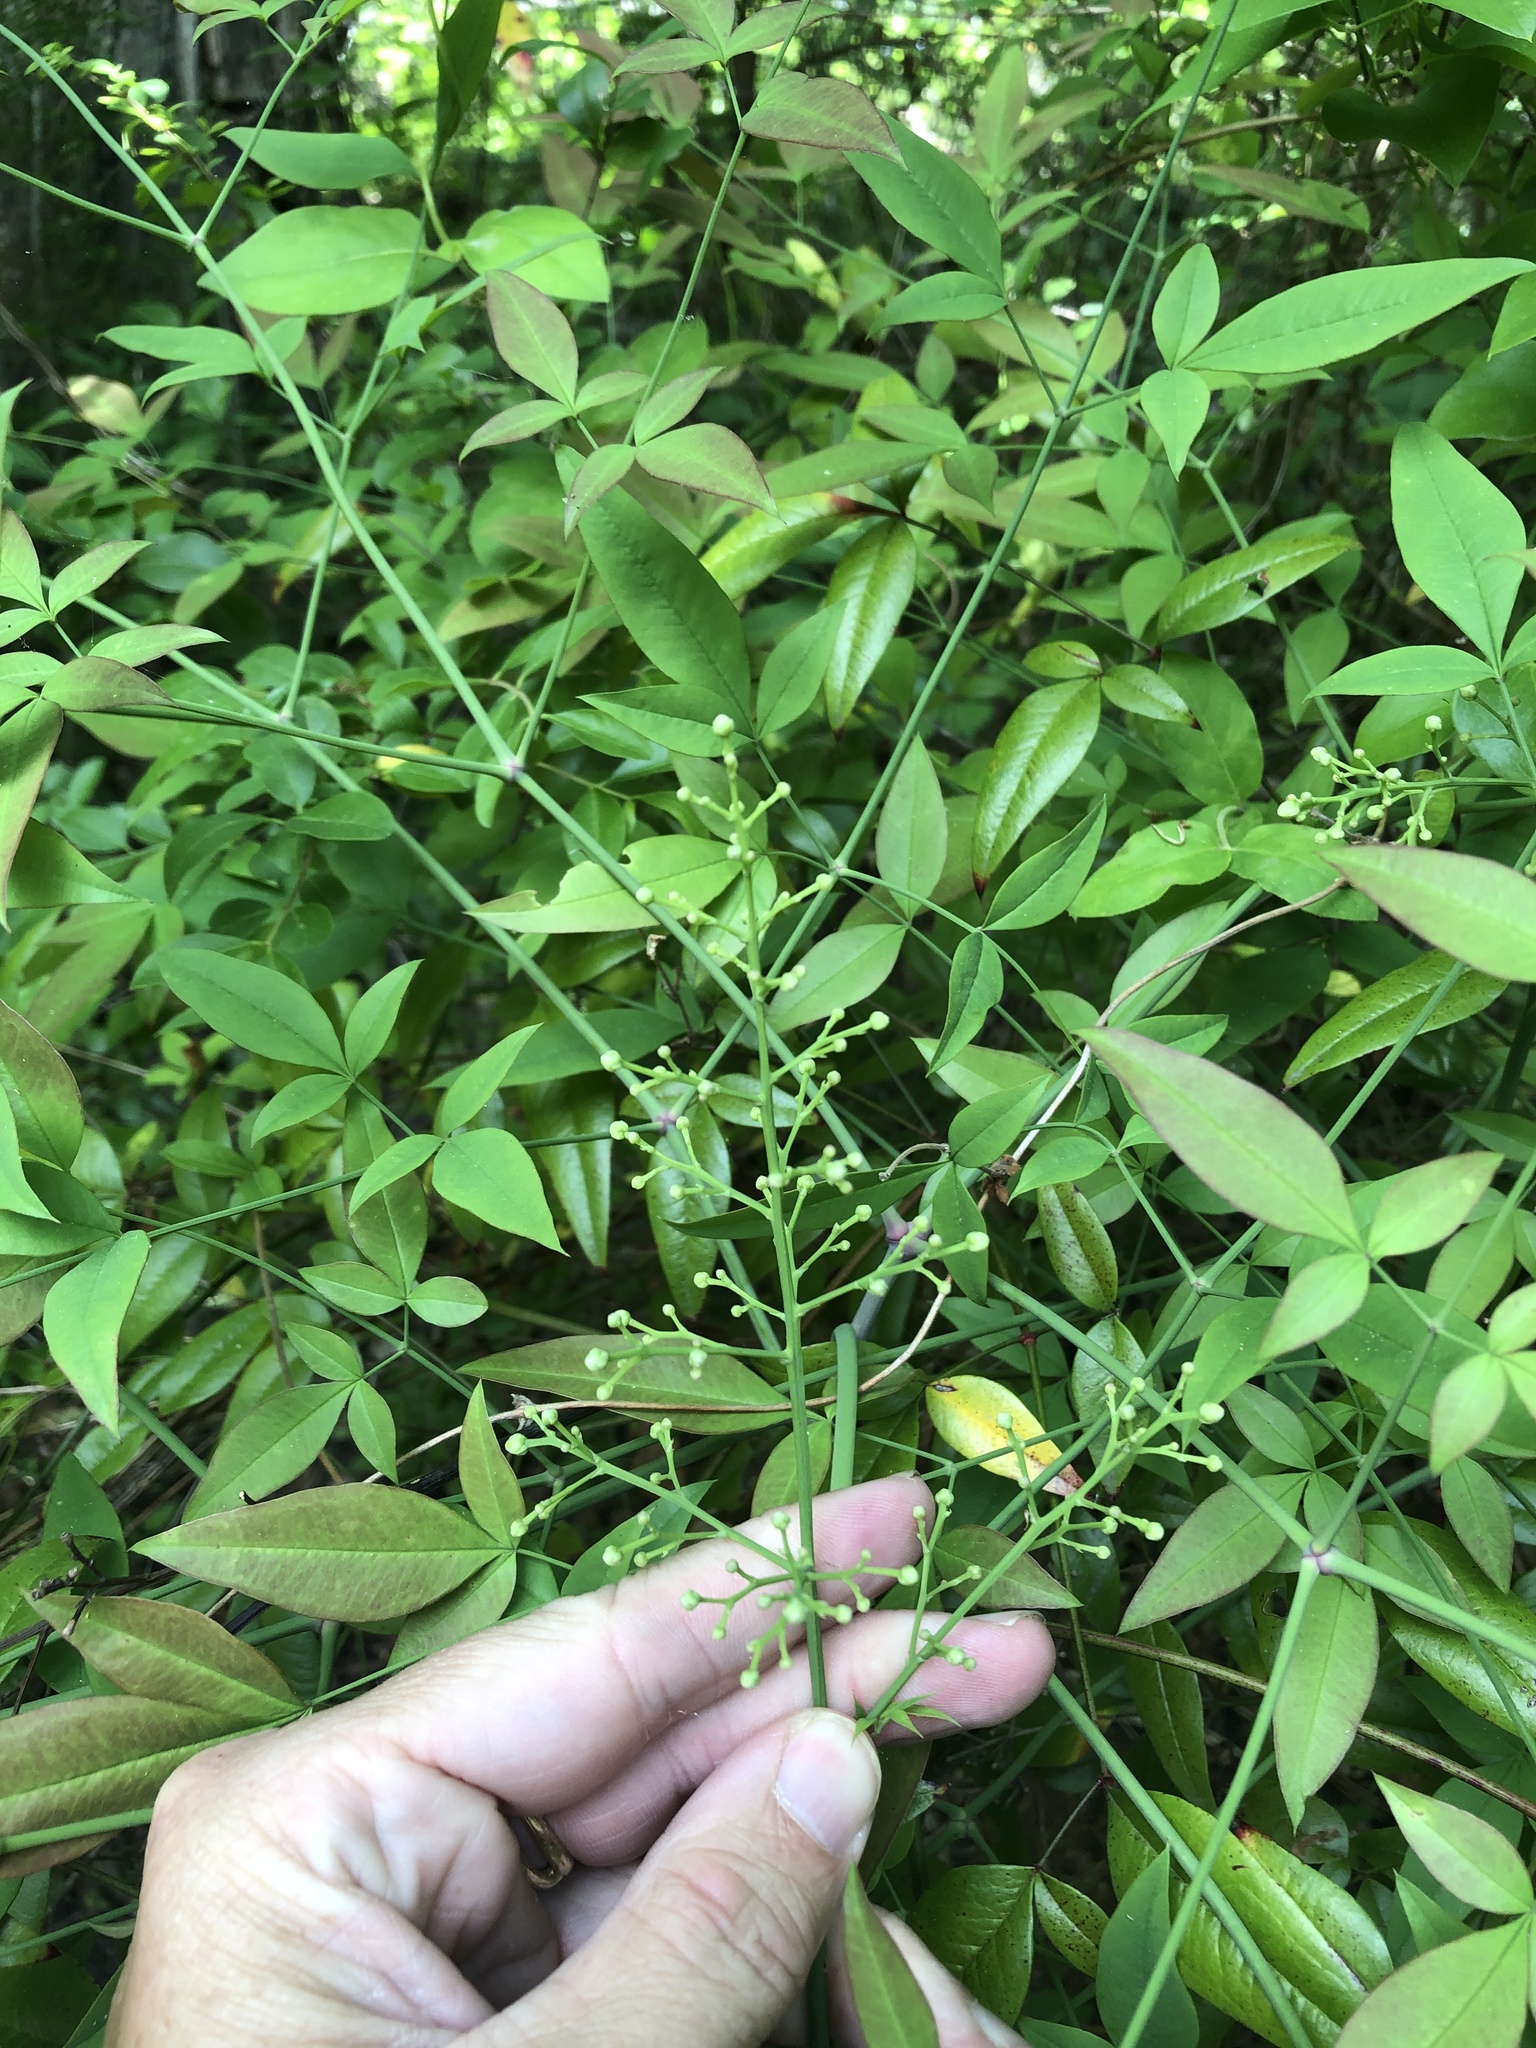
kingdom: Plantae
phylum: Tracheophyta
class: Magnoliopsida
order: Ranunculales
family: Berberidaceae
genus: Nandina
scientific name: Nandina domestica
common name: Sacred bamboo
